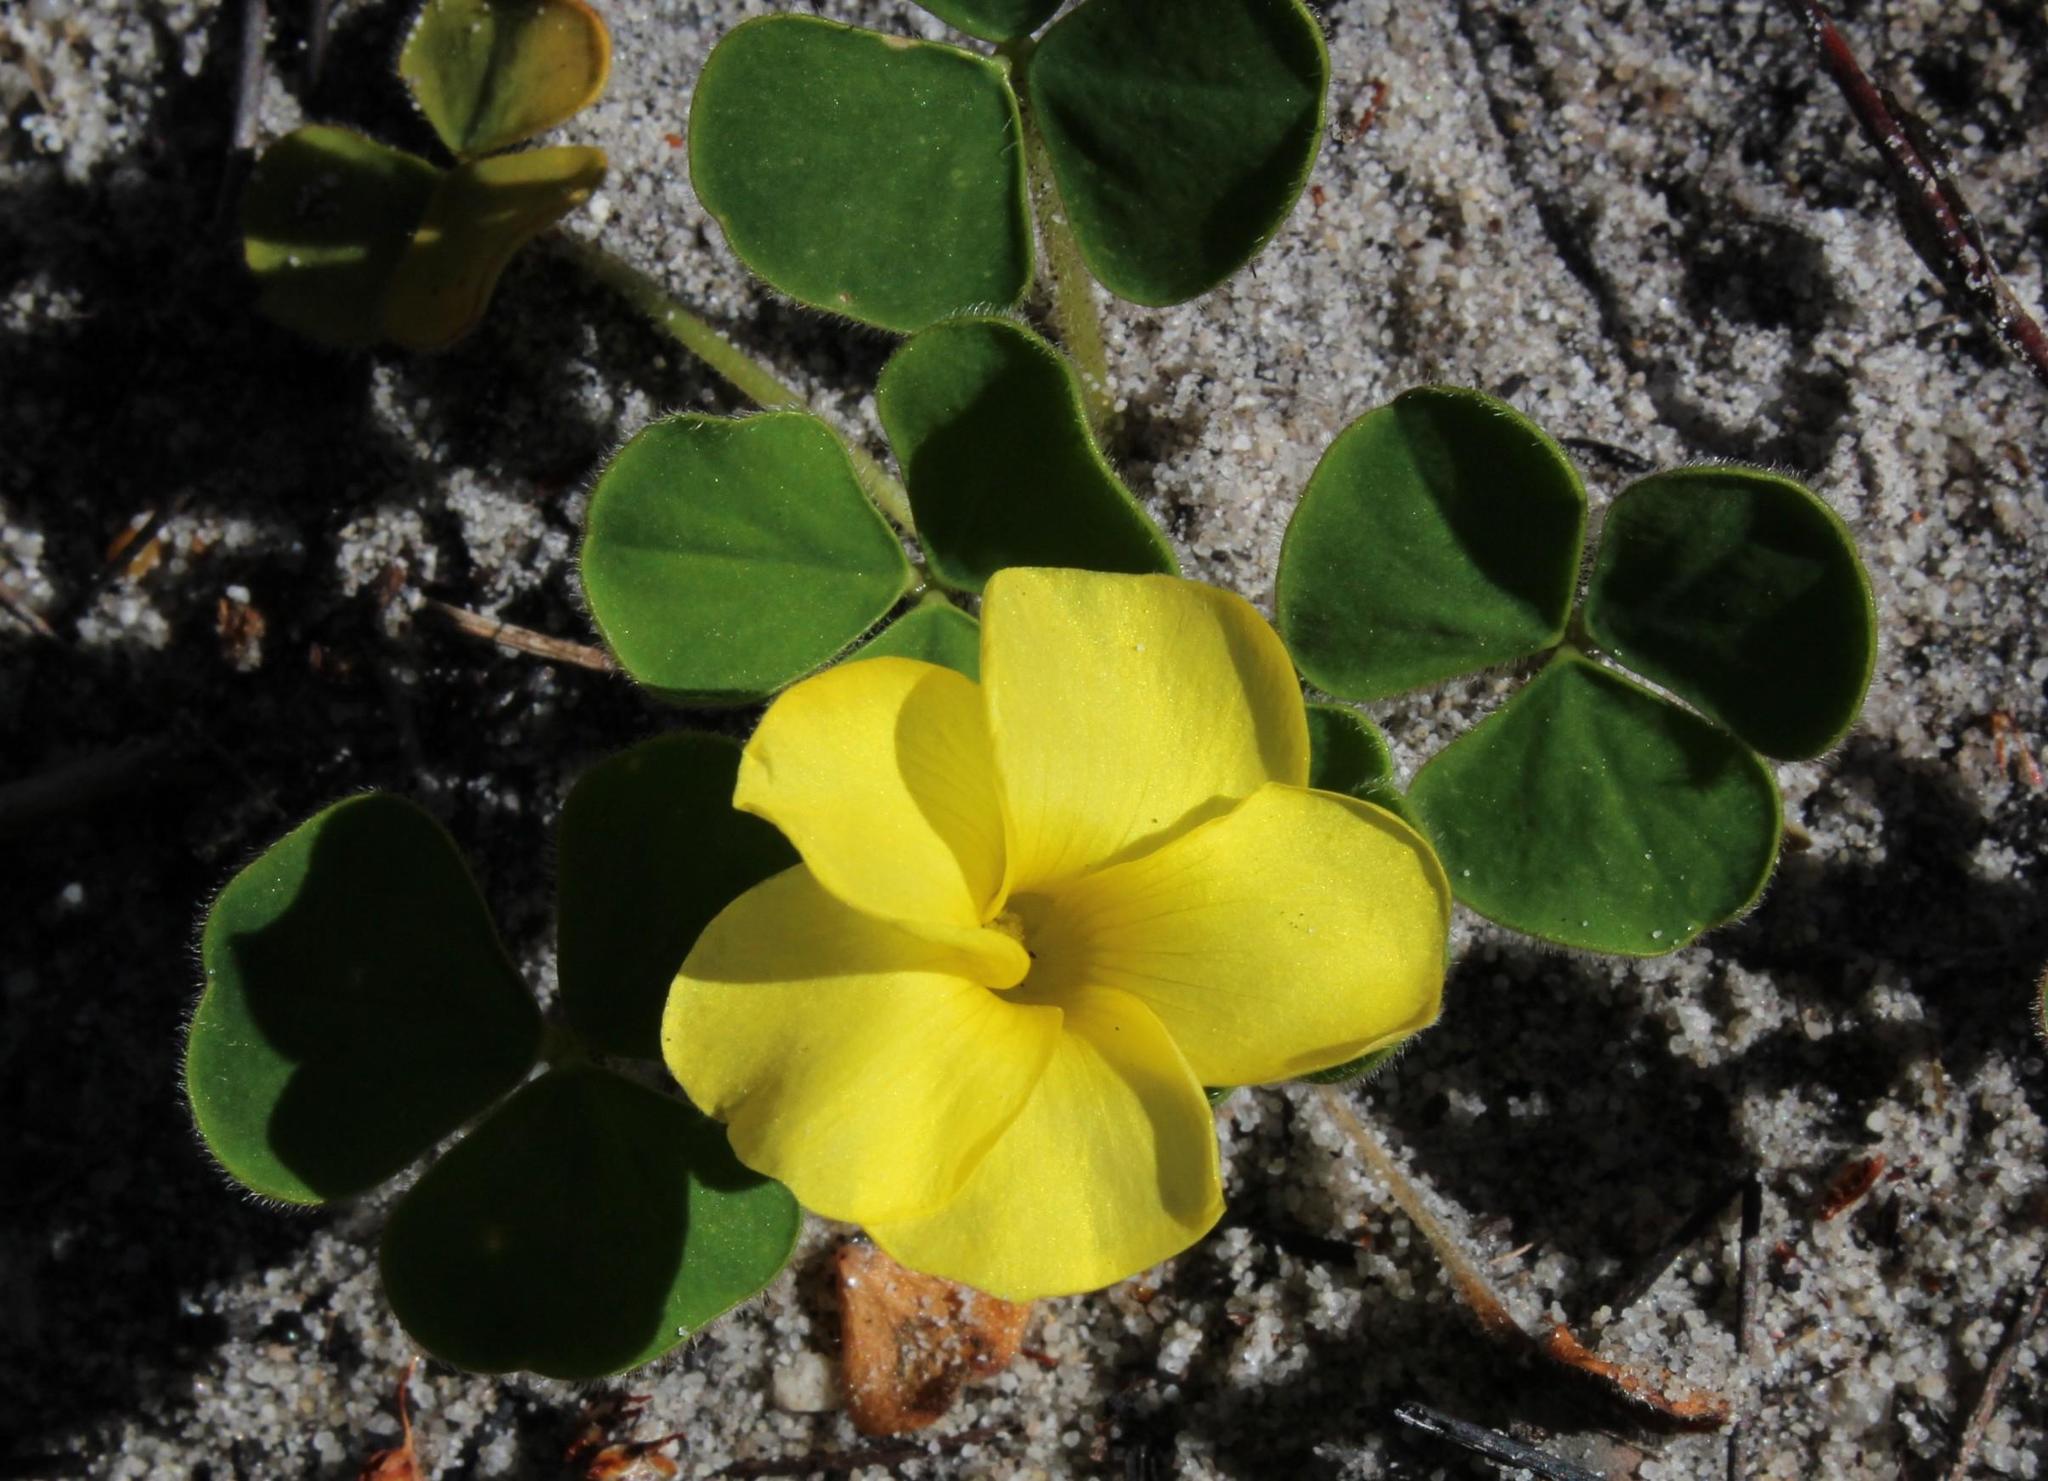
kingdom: Plantae
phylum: Tracheophyta
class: Magnoliopsida
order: Oxalidales
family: Oxalidaceae
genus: Oxalis
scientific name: Oxalis luteola
